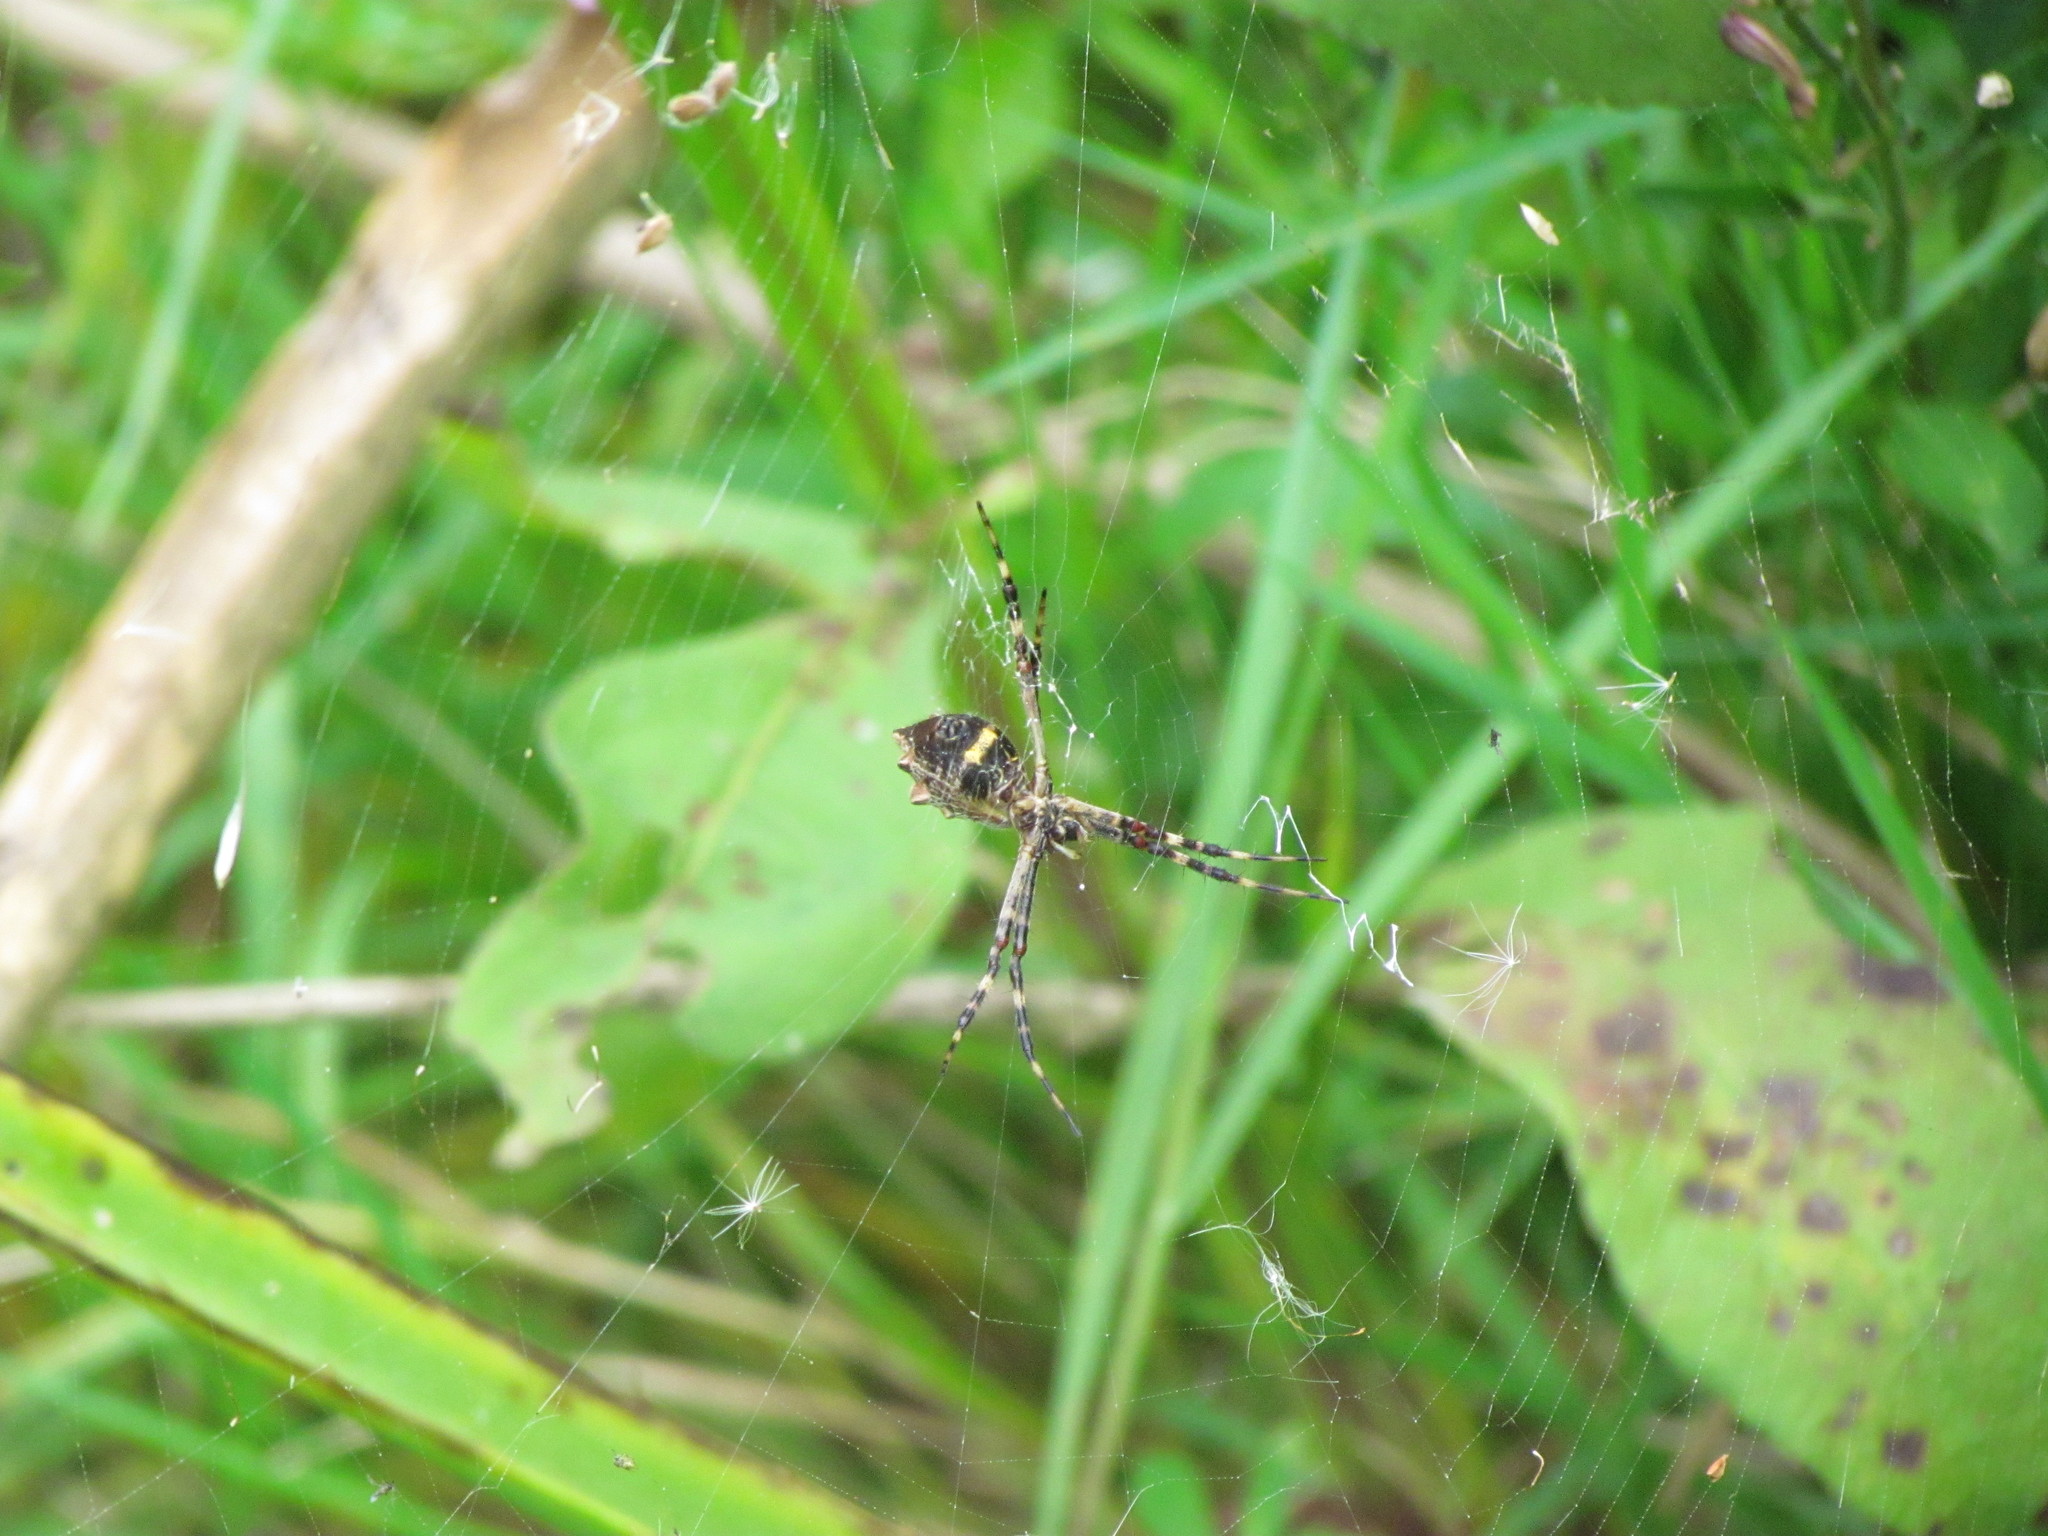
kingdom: Animalia
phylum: Arthropoda
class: Arachnida
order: Araneae
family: Araneidae
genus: Argiope
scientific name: Argiope argentata
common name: Orb weavers
